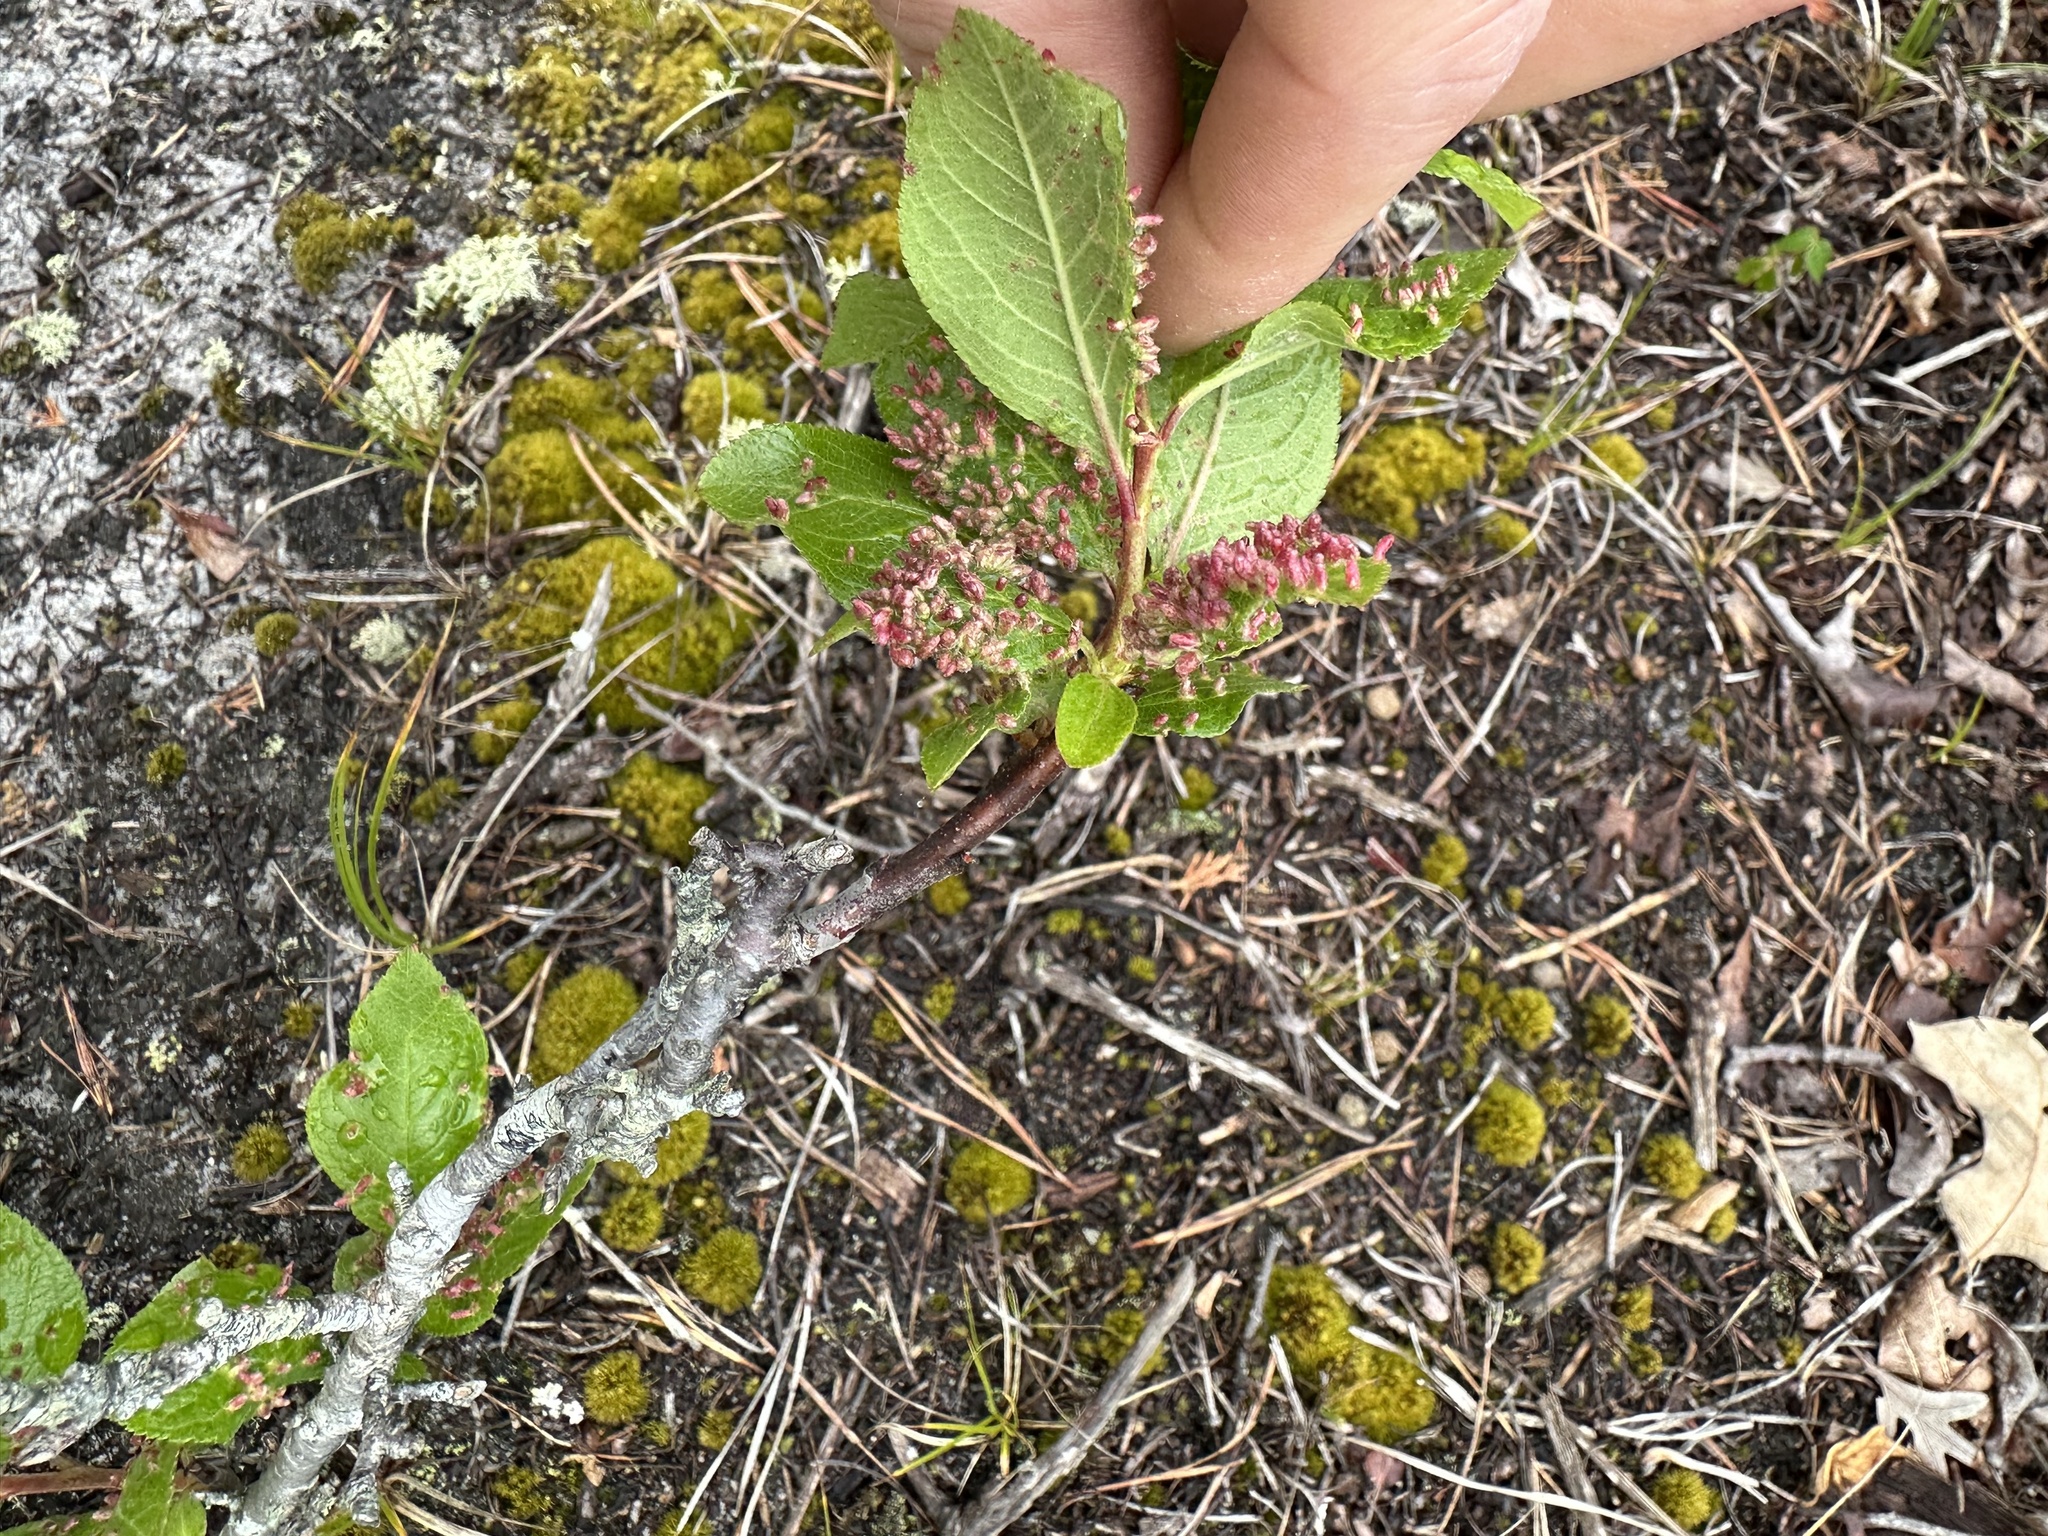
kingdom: Animalia
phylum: Arthropoda
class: Arachnida
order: Trombidiformes
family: Eriophyidae
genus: Eriophyes
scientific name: Eriophyes emarginatae
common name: Plum leaf gall mite
